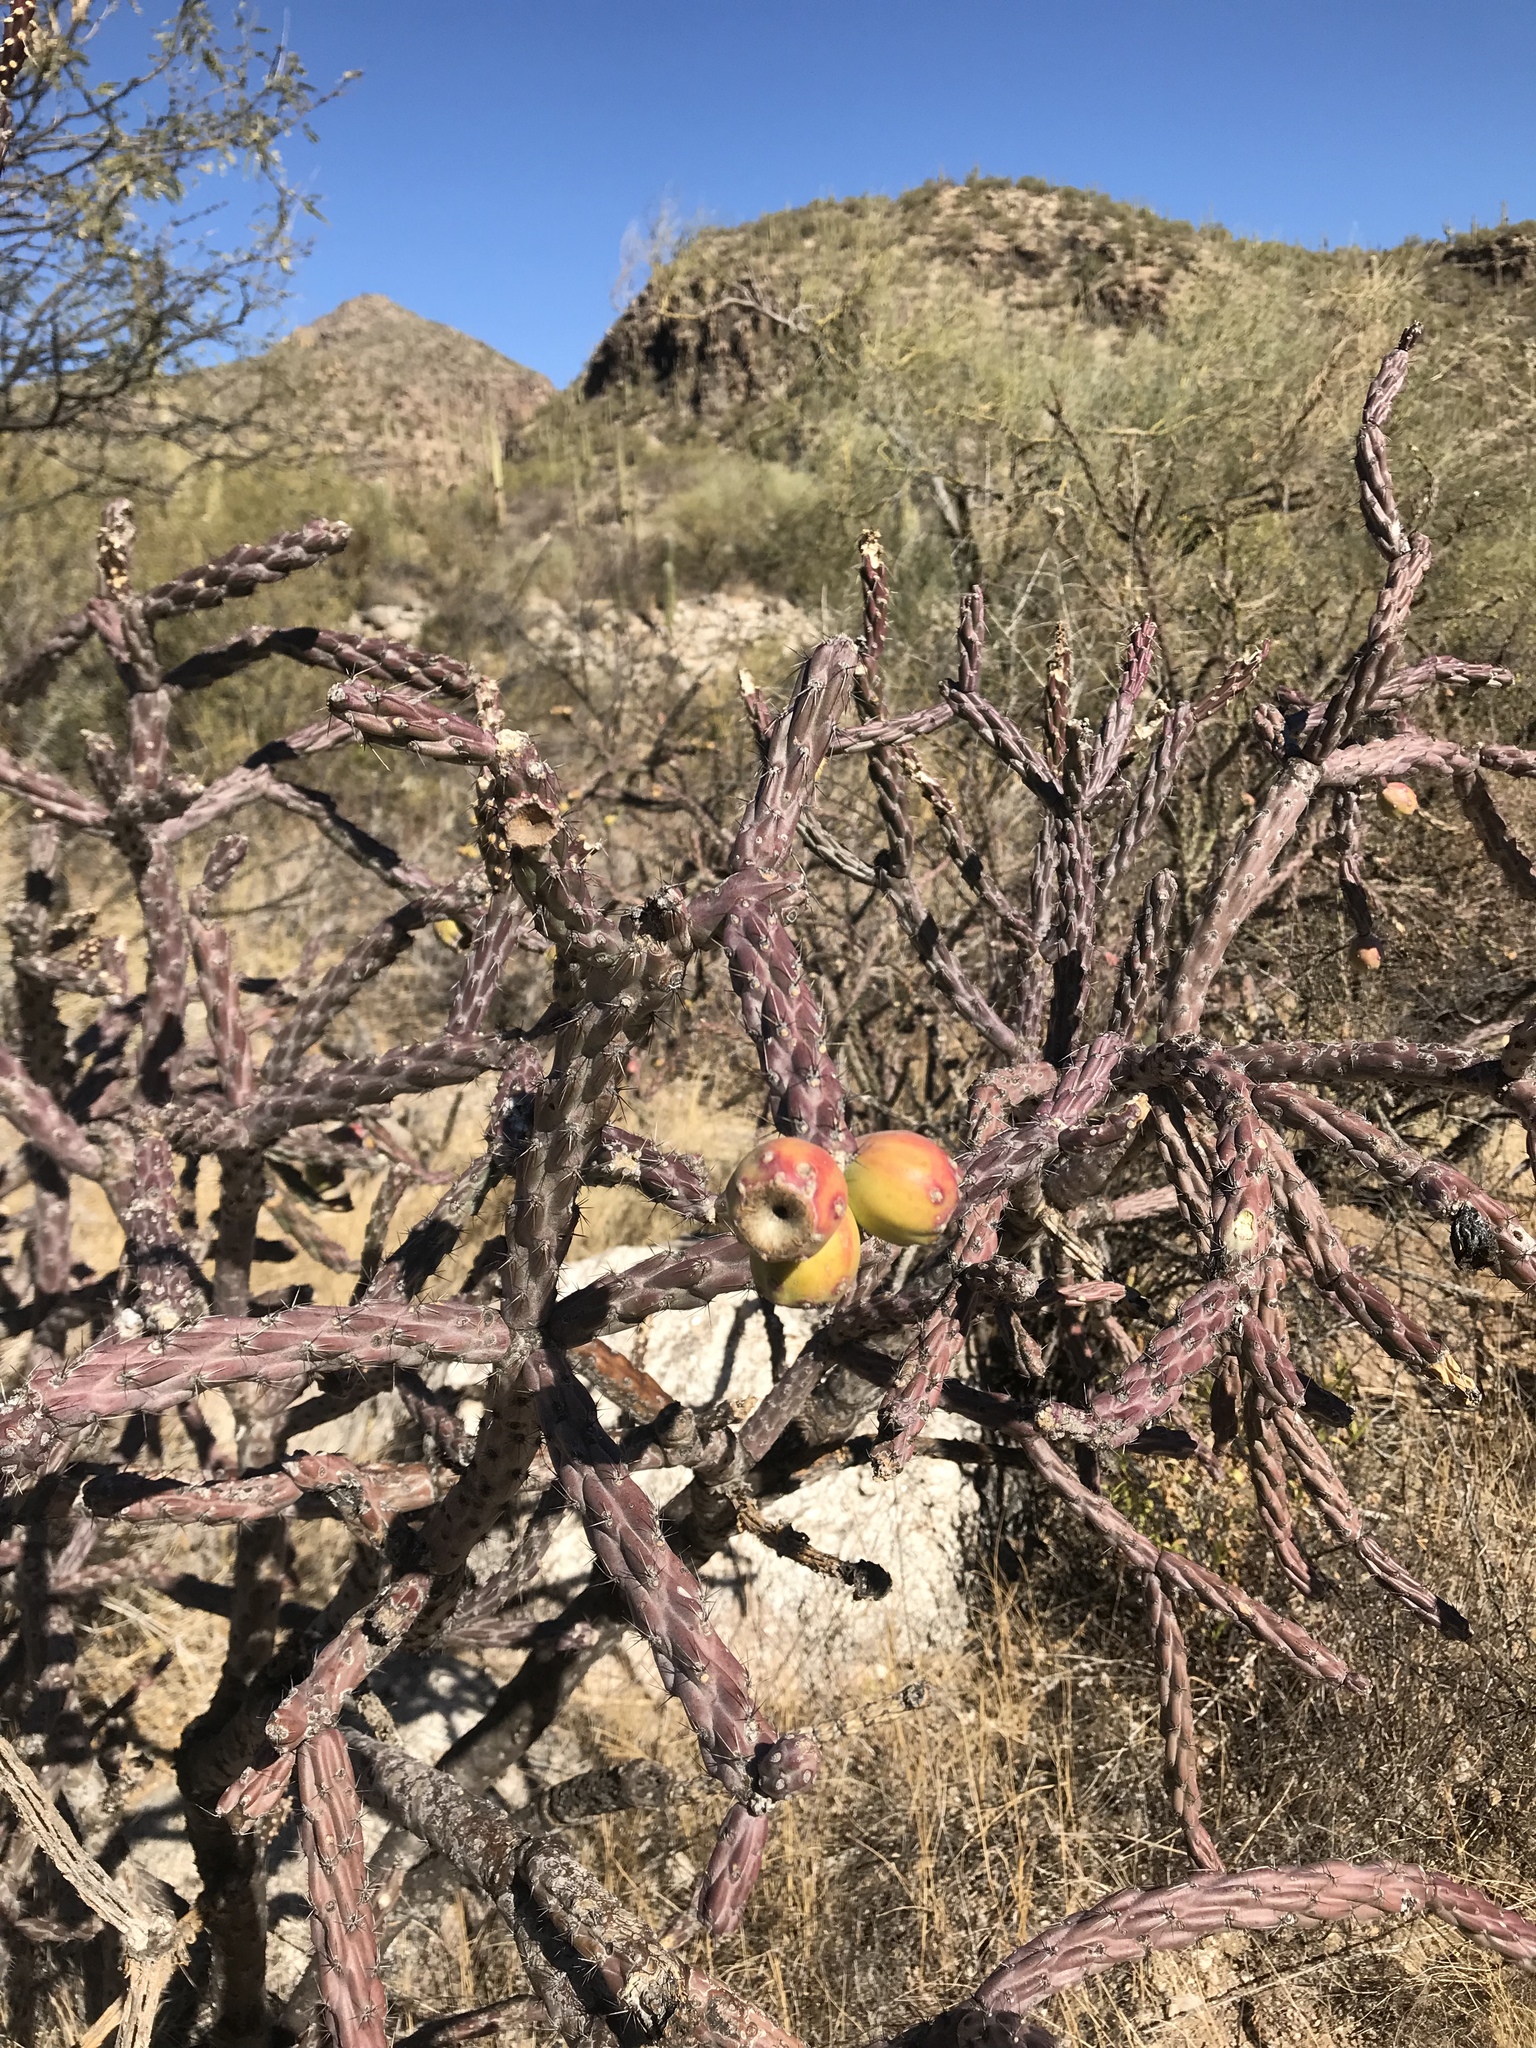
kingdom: Plantae
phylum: Tracheophyta
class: Magnoliopsida
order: Caryophyllales
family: Cactaceae
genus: Cylindropuntia
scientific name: Cylindropuntia thurberi
